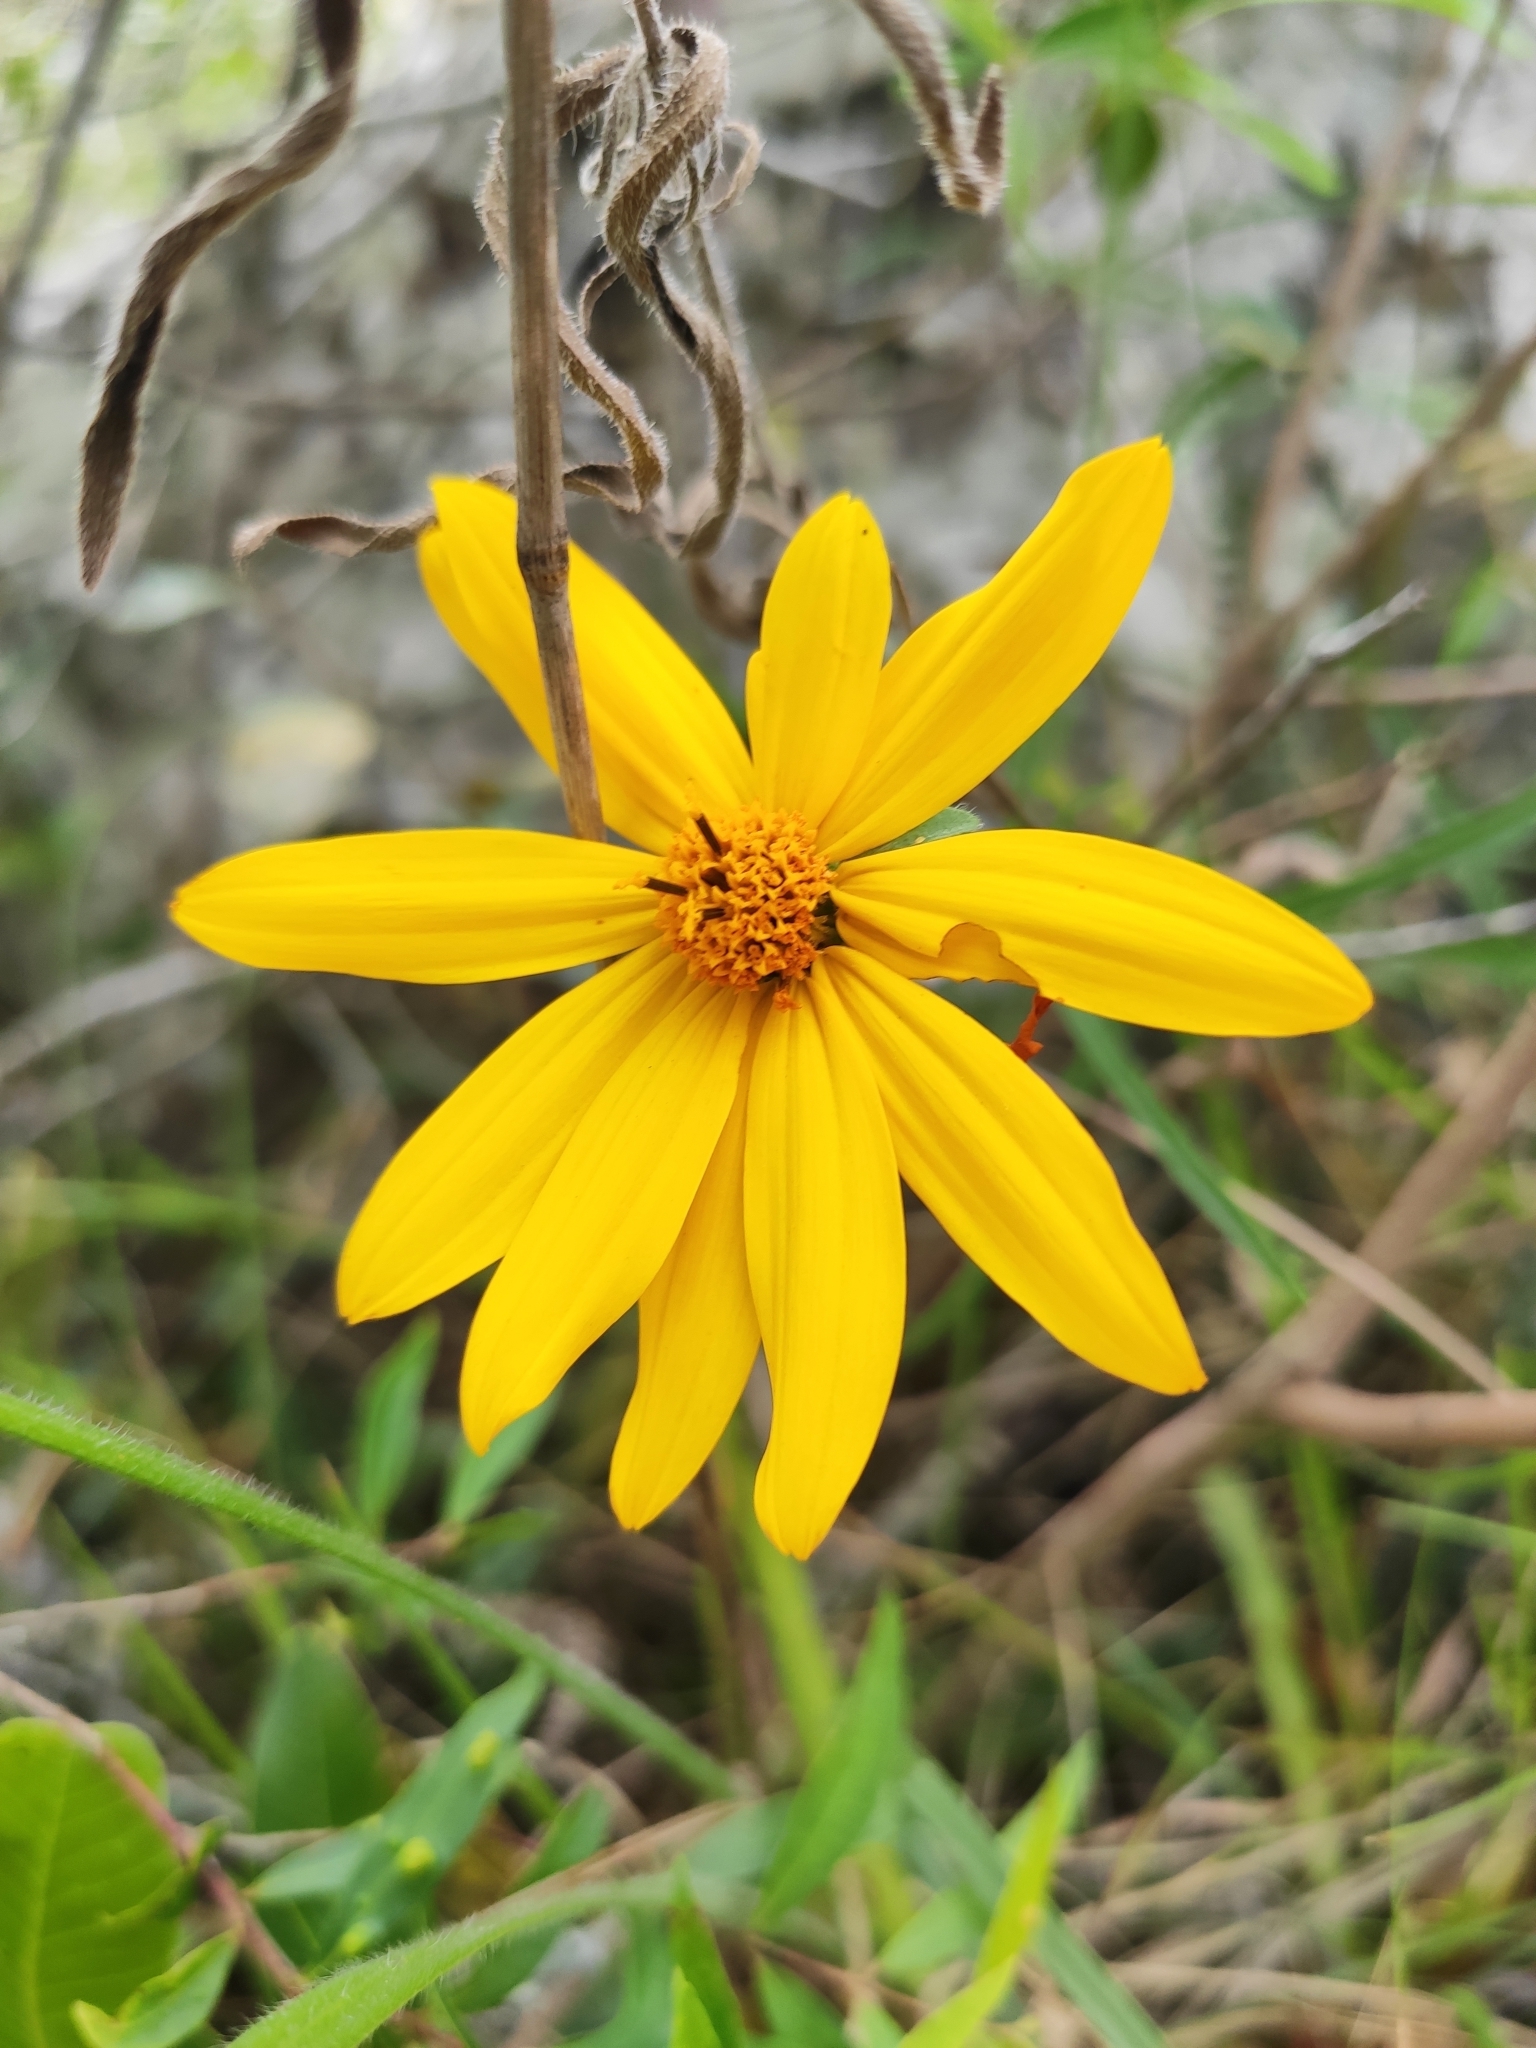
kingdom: Plantae
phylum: Tracheophyta
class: Magnoliopsida
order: Asterales
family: Asteraceae
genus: Wedelia
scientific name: Wedelia montevidensis
